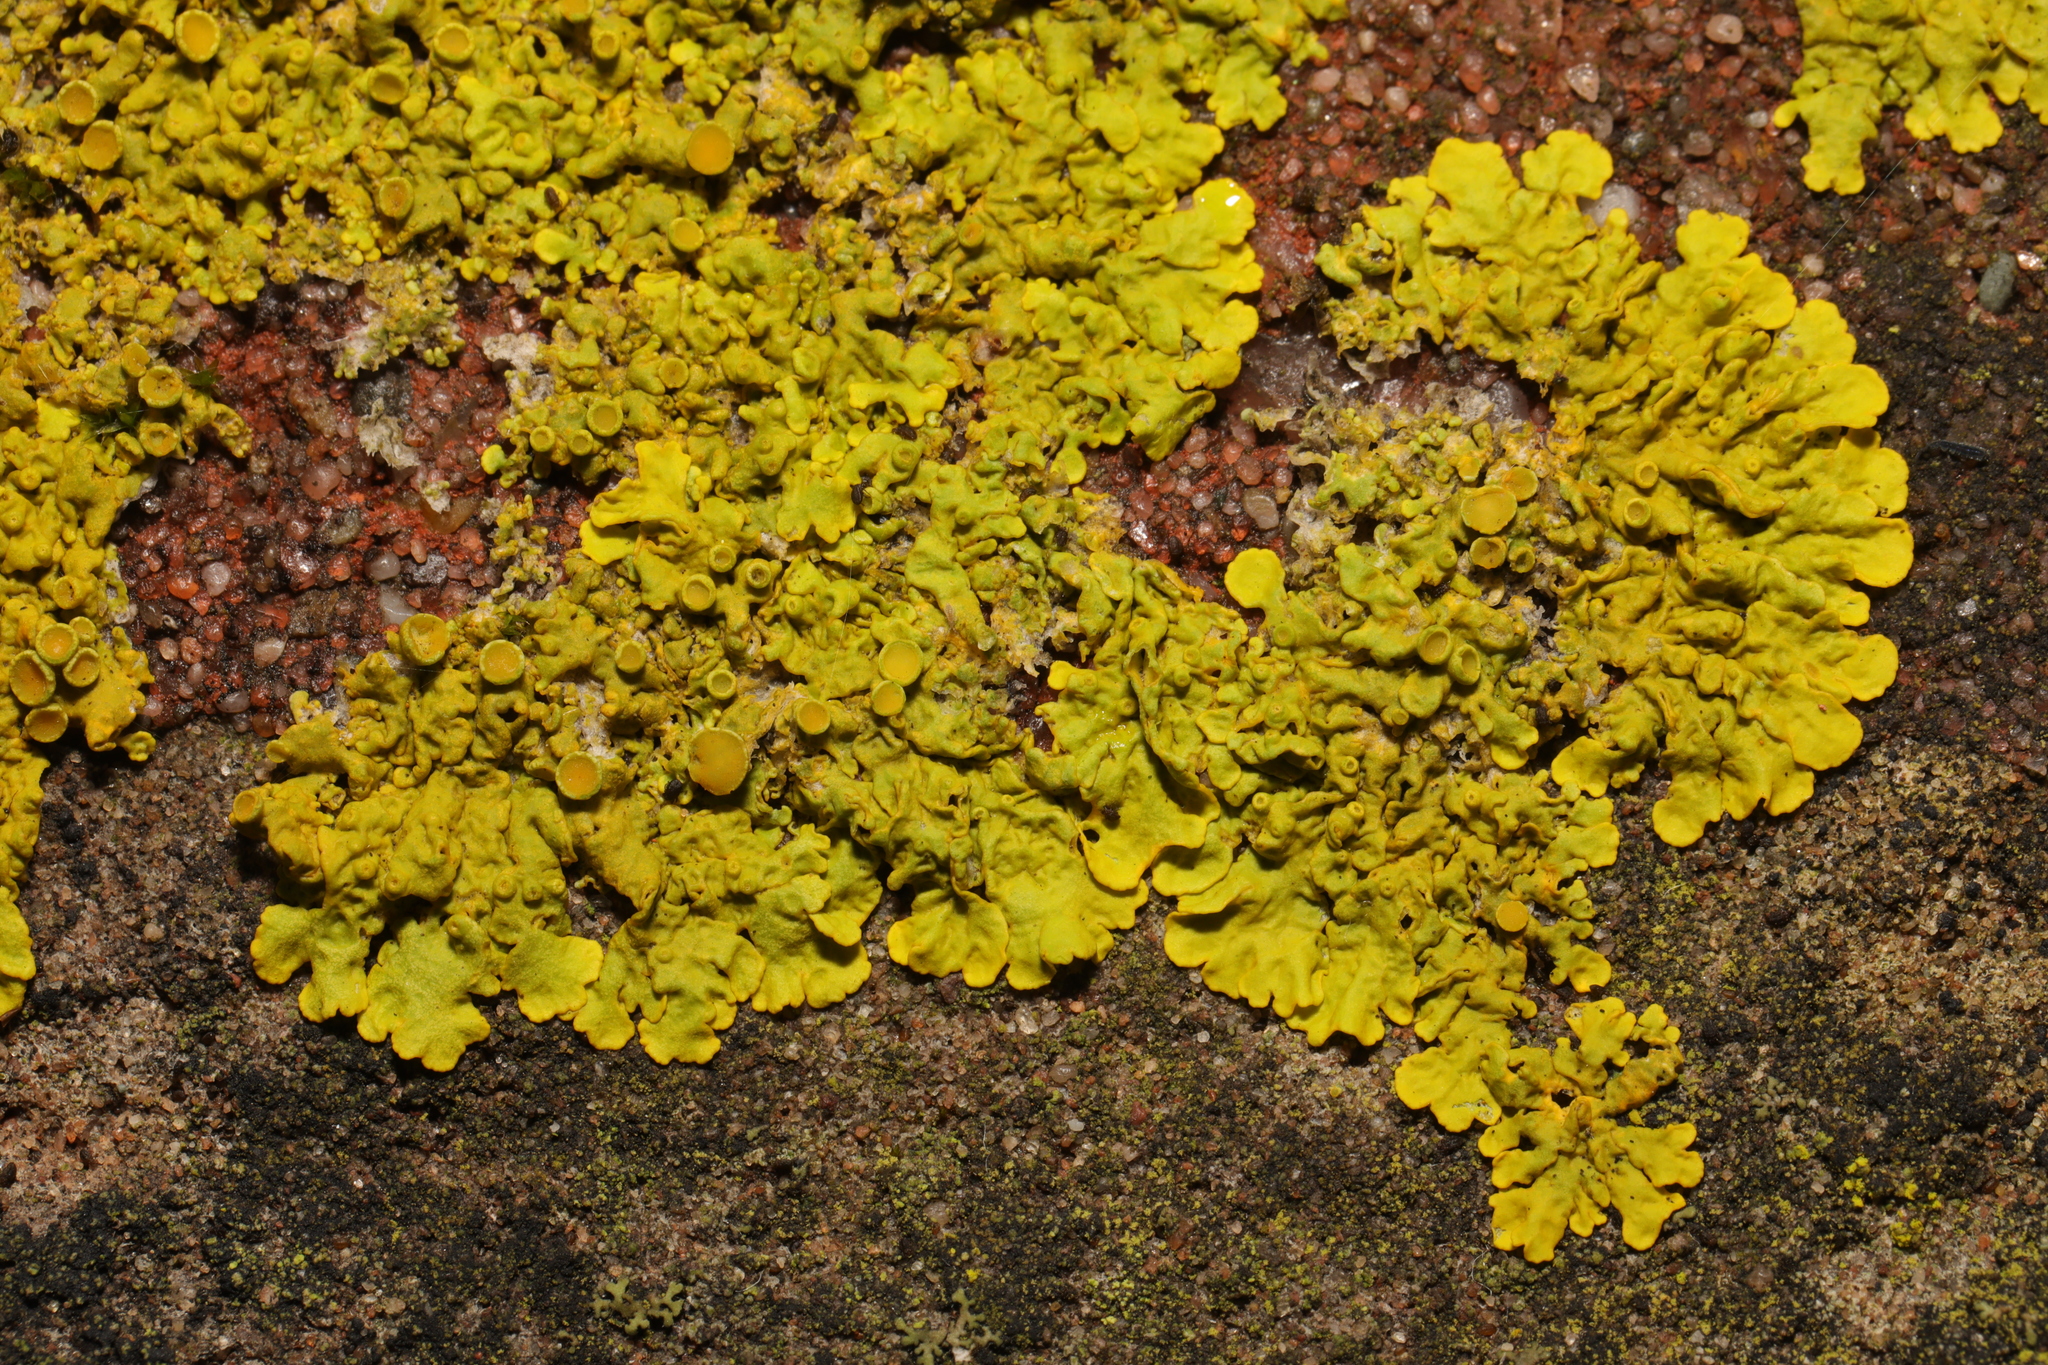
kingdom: Fungi
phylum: Ascomycota
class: Lecanoromycetes
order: Teloschistales
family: Teloschistaceae
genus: Xanthoria
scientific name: Xanthoria parietina
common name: Common orange lichen
